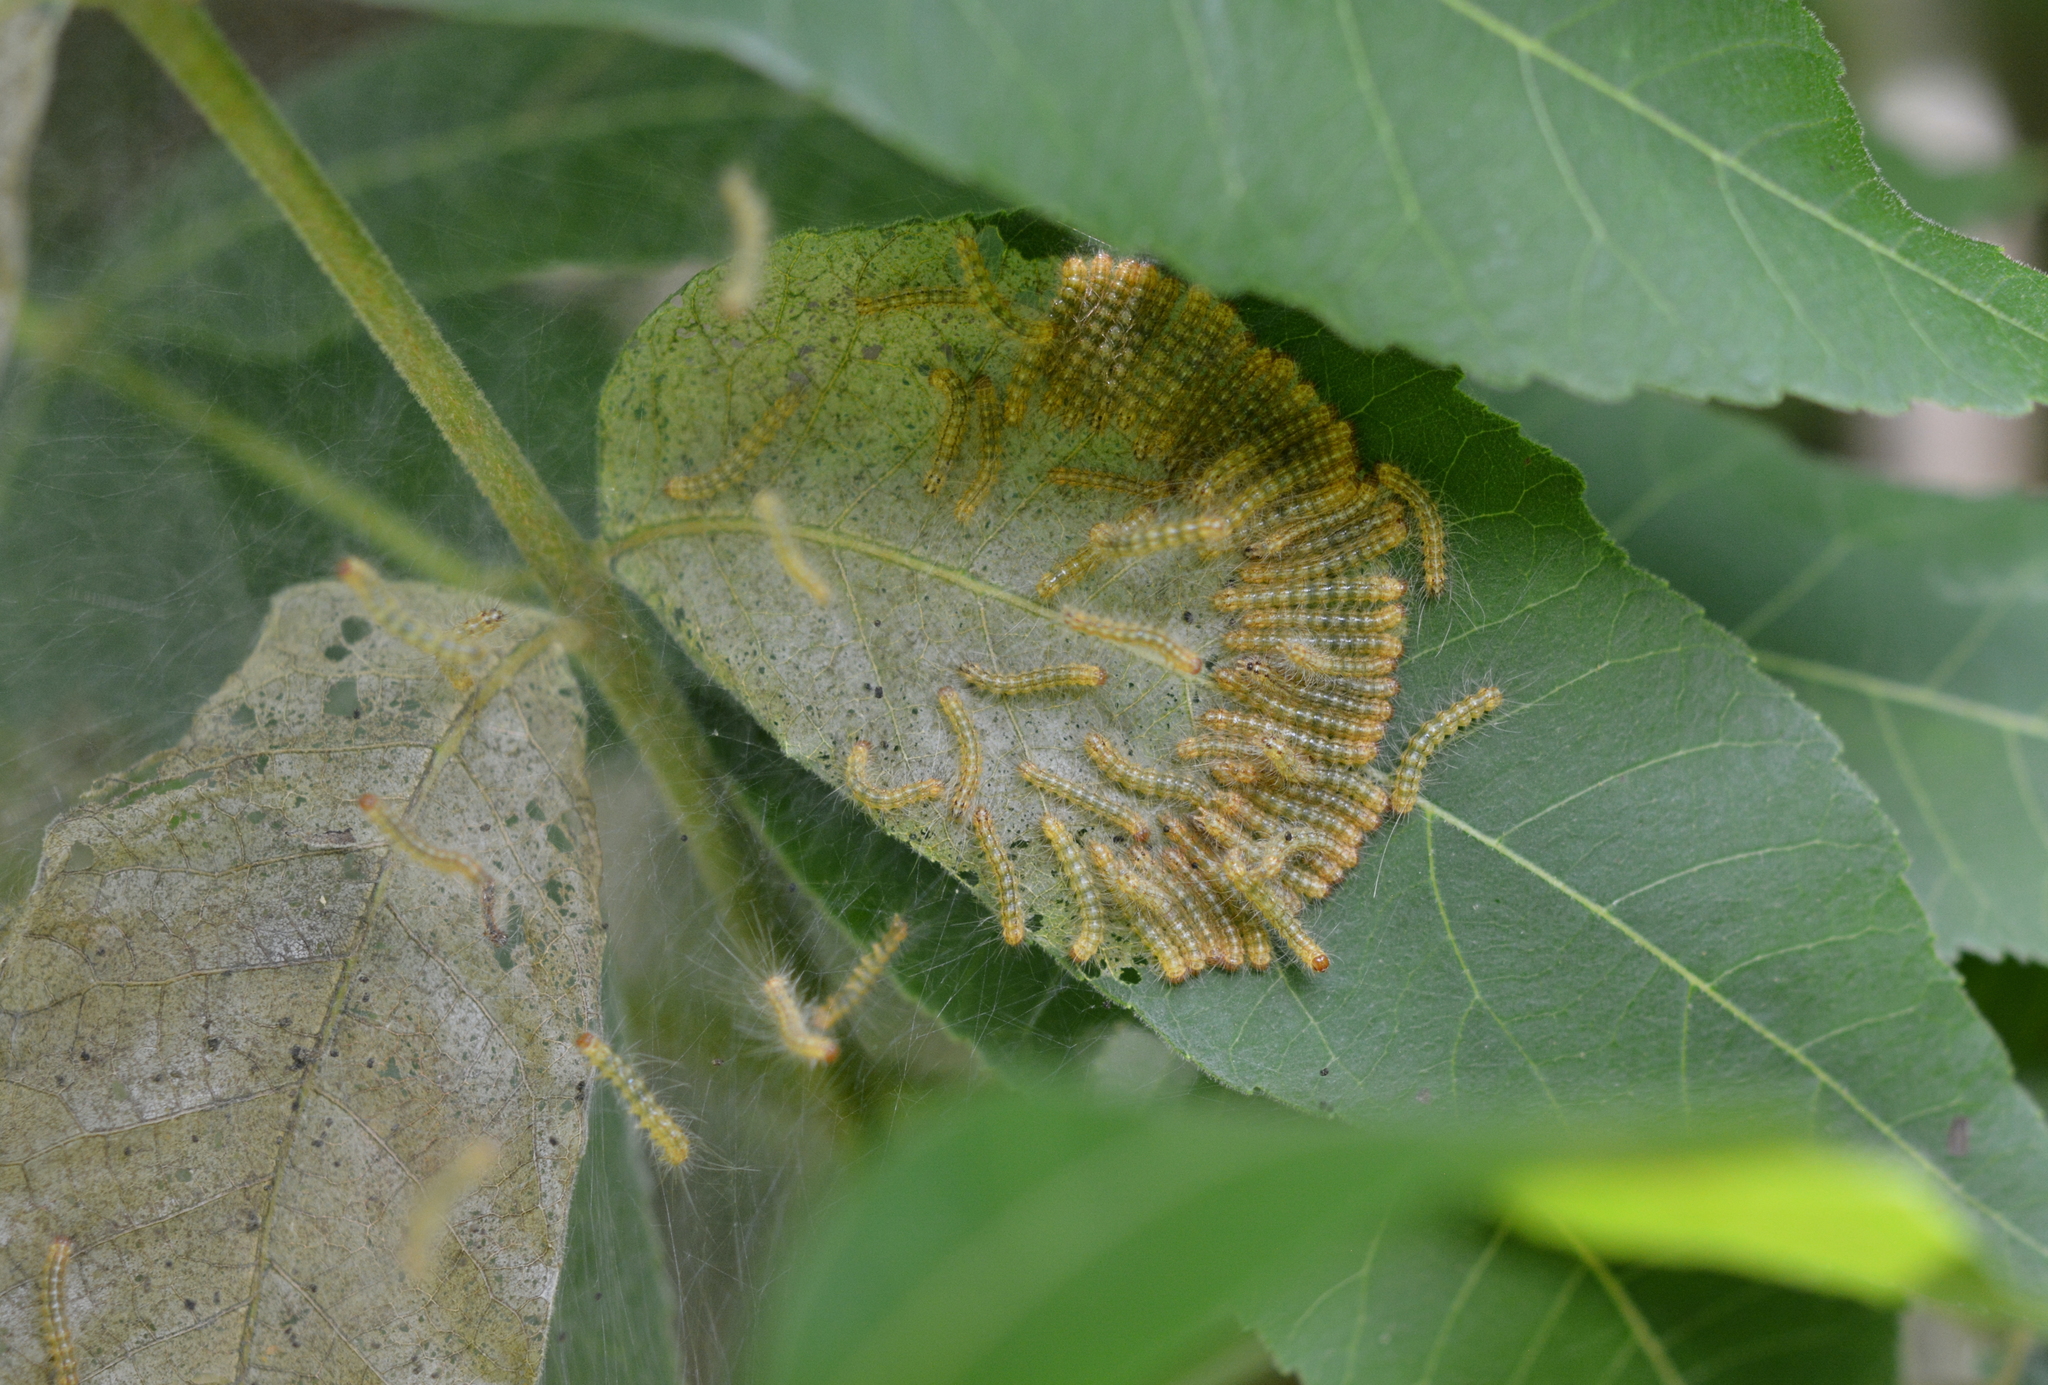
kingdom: Animalia
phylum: Arthropoda
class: Insecta
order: Lepidoptera
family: Erebidae
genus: Hyphantria
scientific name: Hyphantria cunea
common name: American white moth
